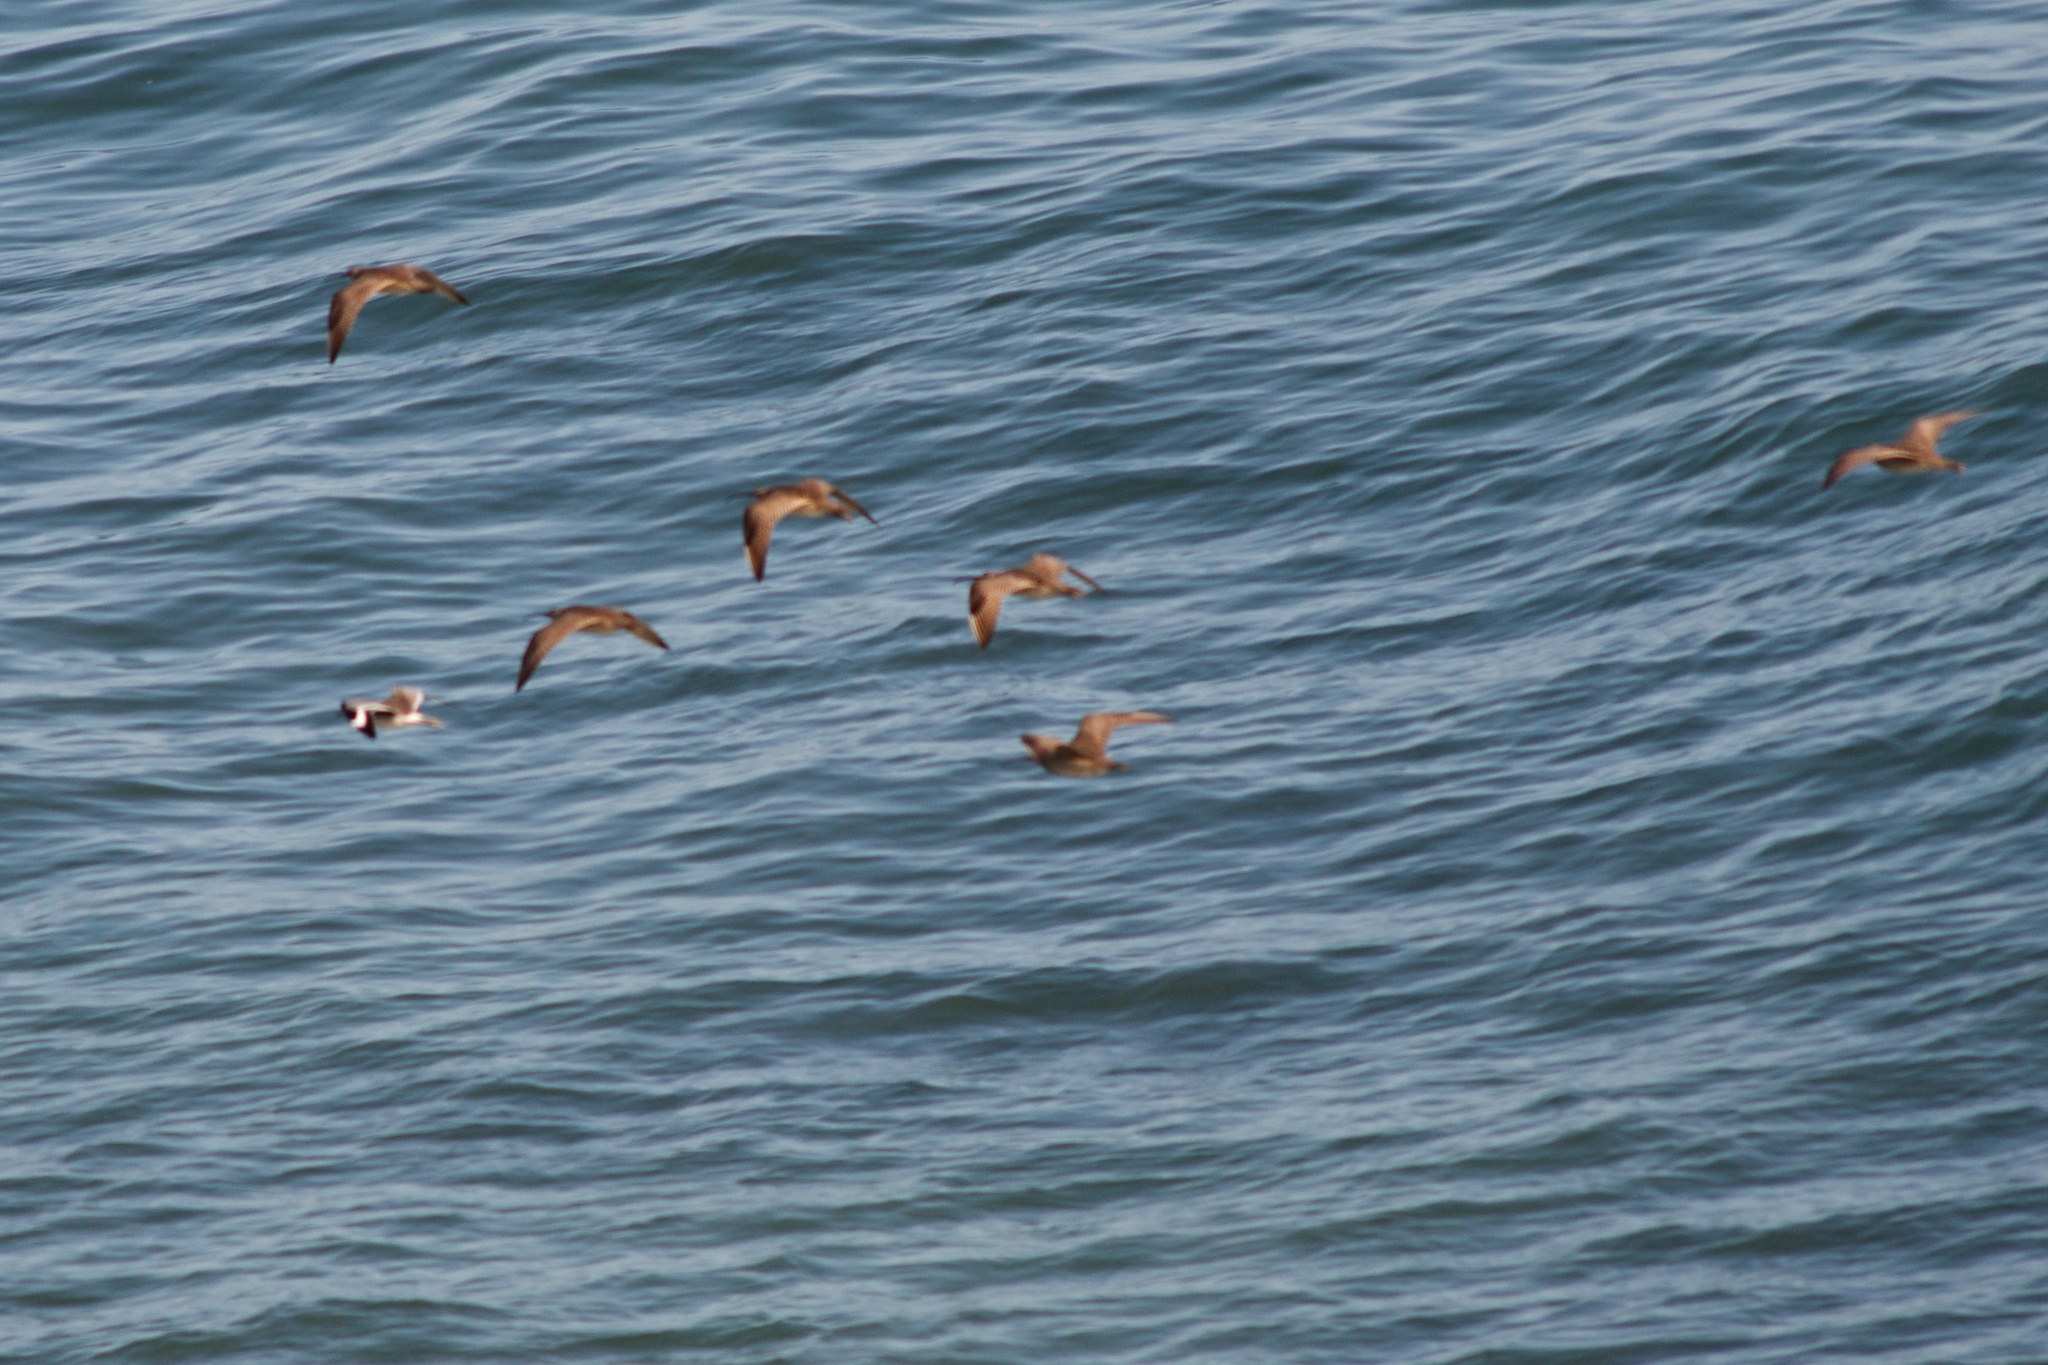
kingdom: Animalia
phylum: Chordata
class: Aves
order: Charadriiformes
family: Scolopacidae
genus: Tringa
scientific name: Tringa semipalmata
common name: Willet
